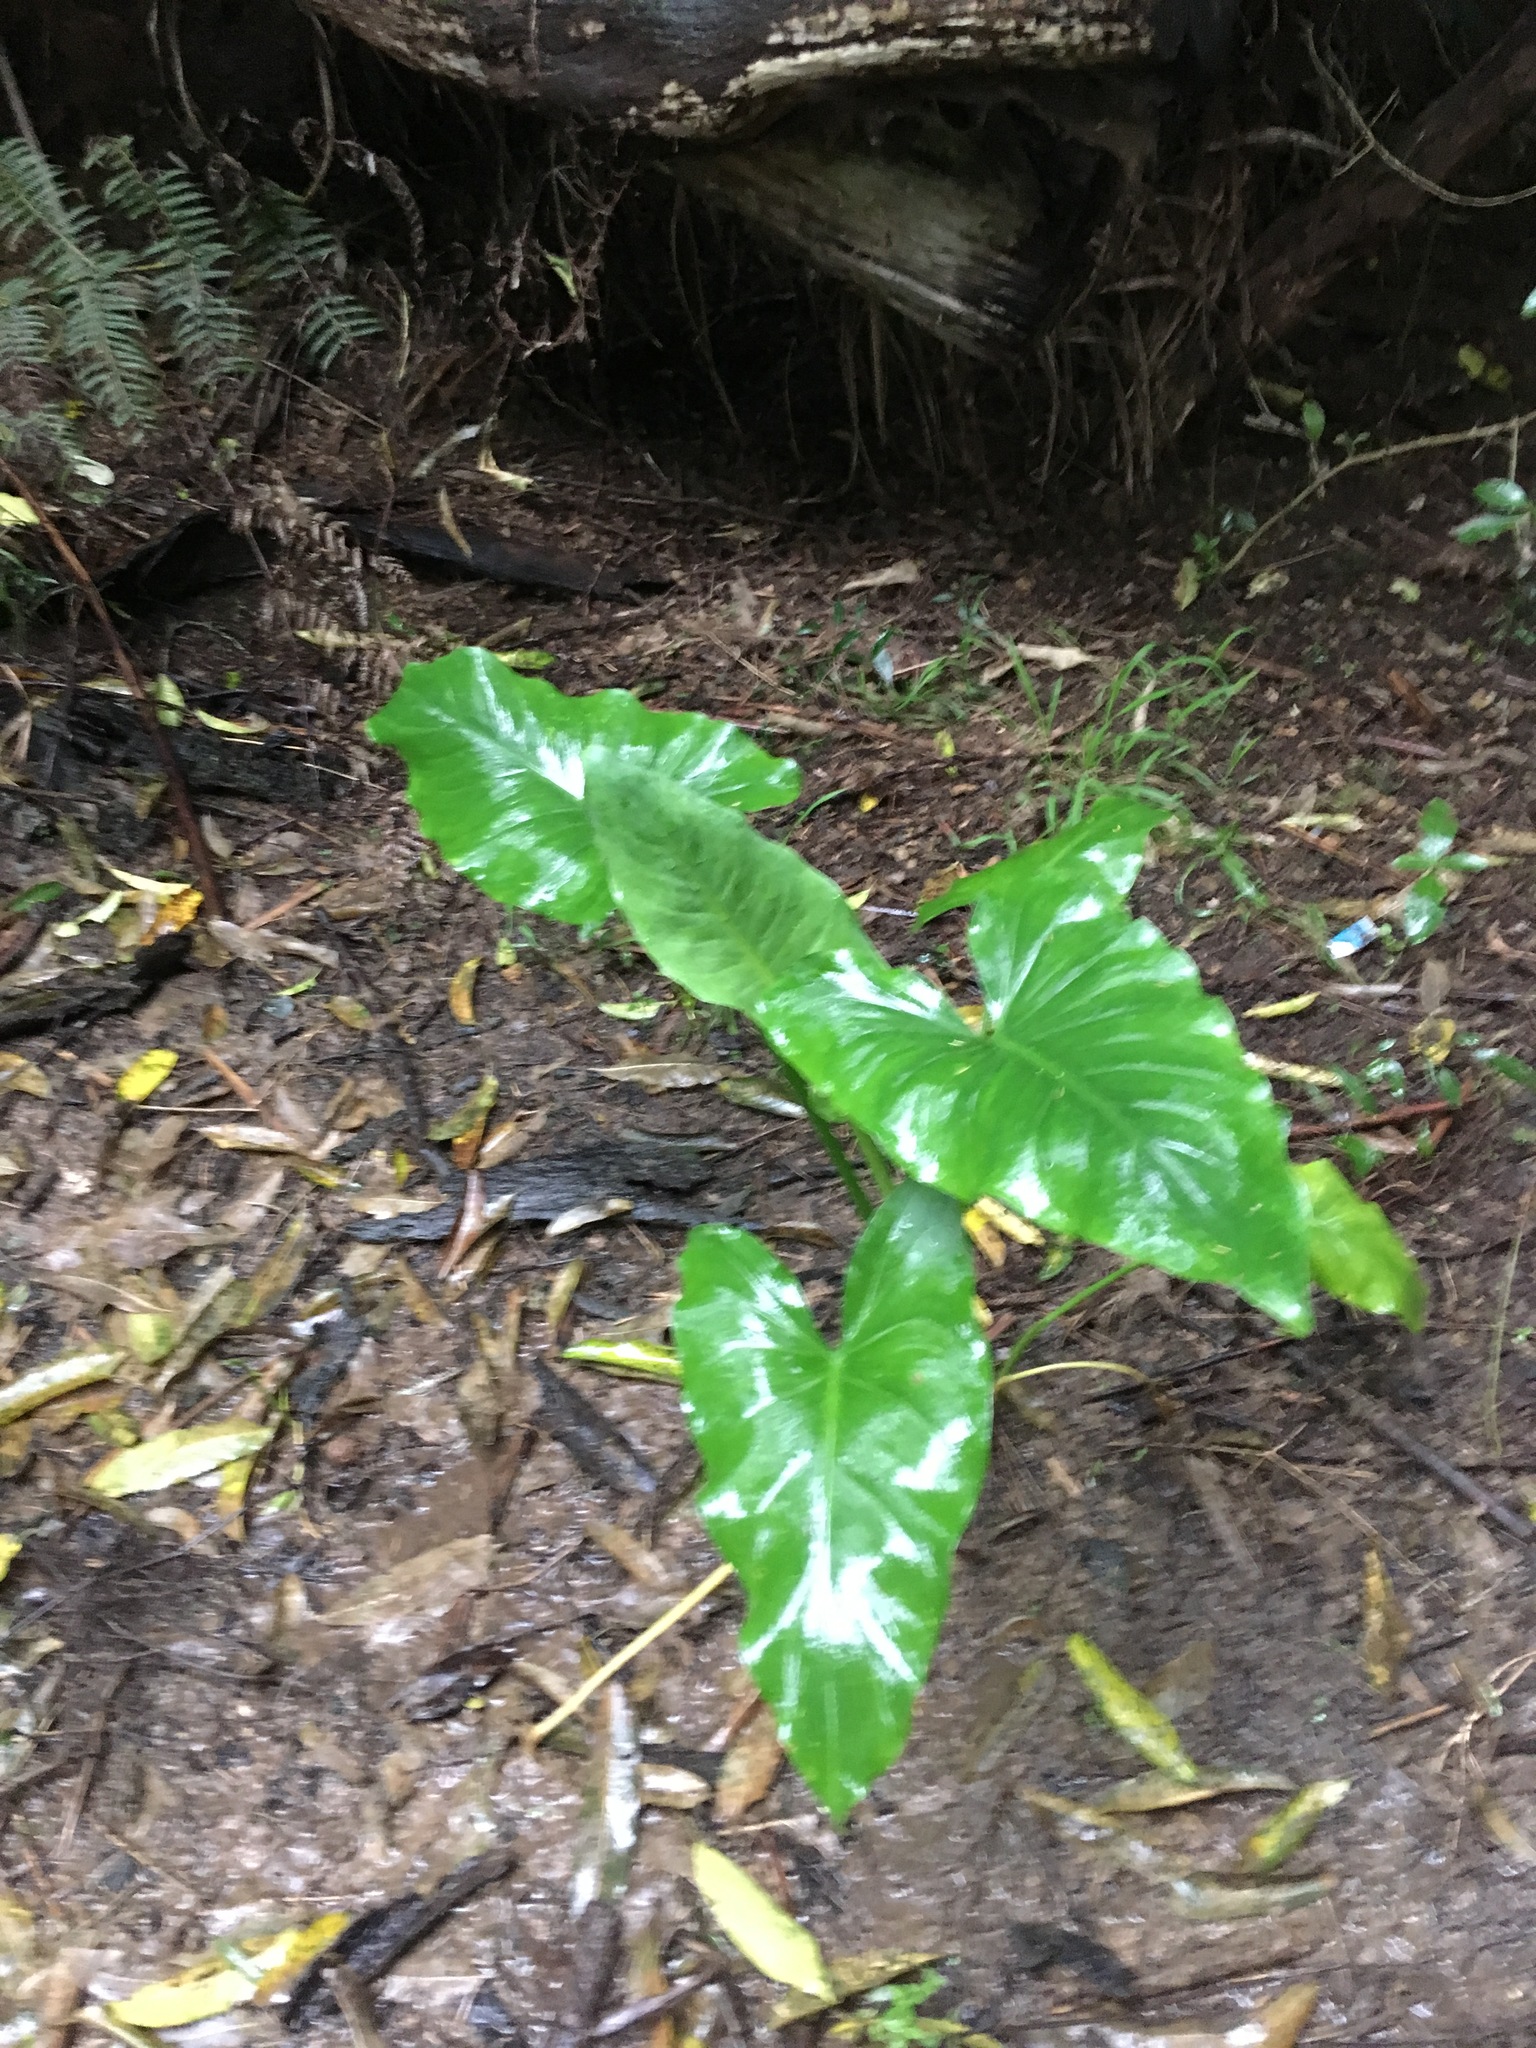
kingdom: Plantae
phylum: Tracheophyta
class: Liliopsida
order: Alismatales
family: Araceae
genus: Zantedeschia
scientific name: Zantedeschia aethiopica
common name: Altar-lily
